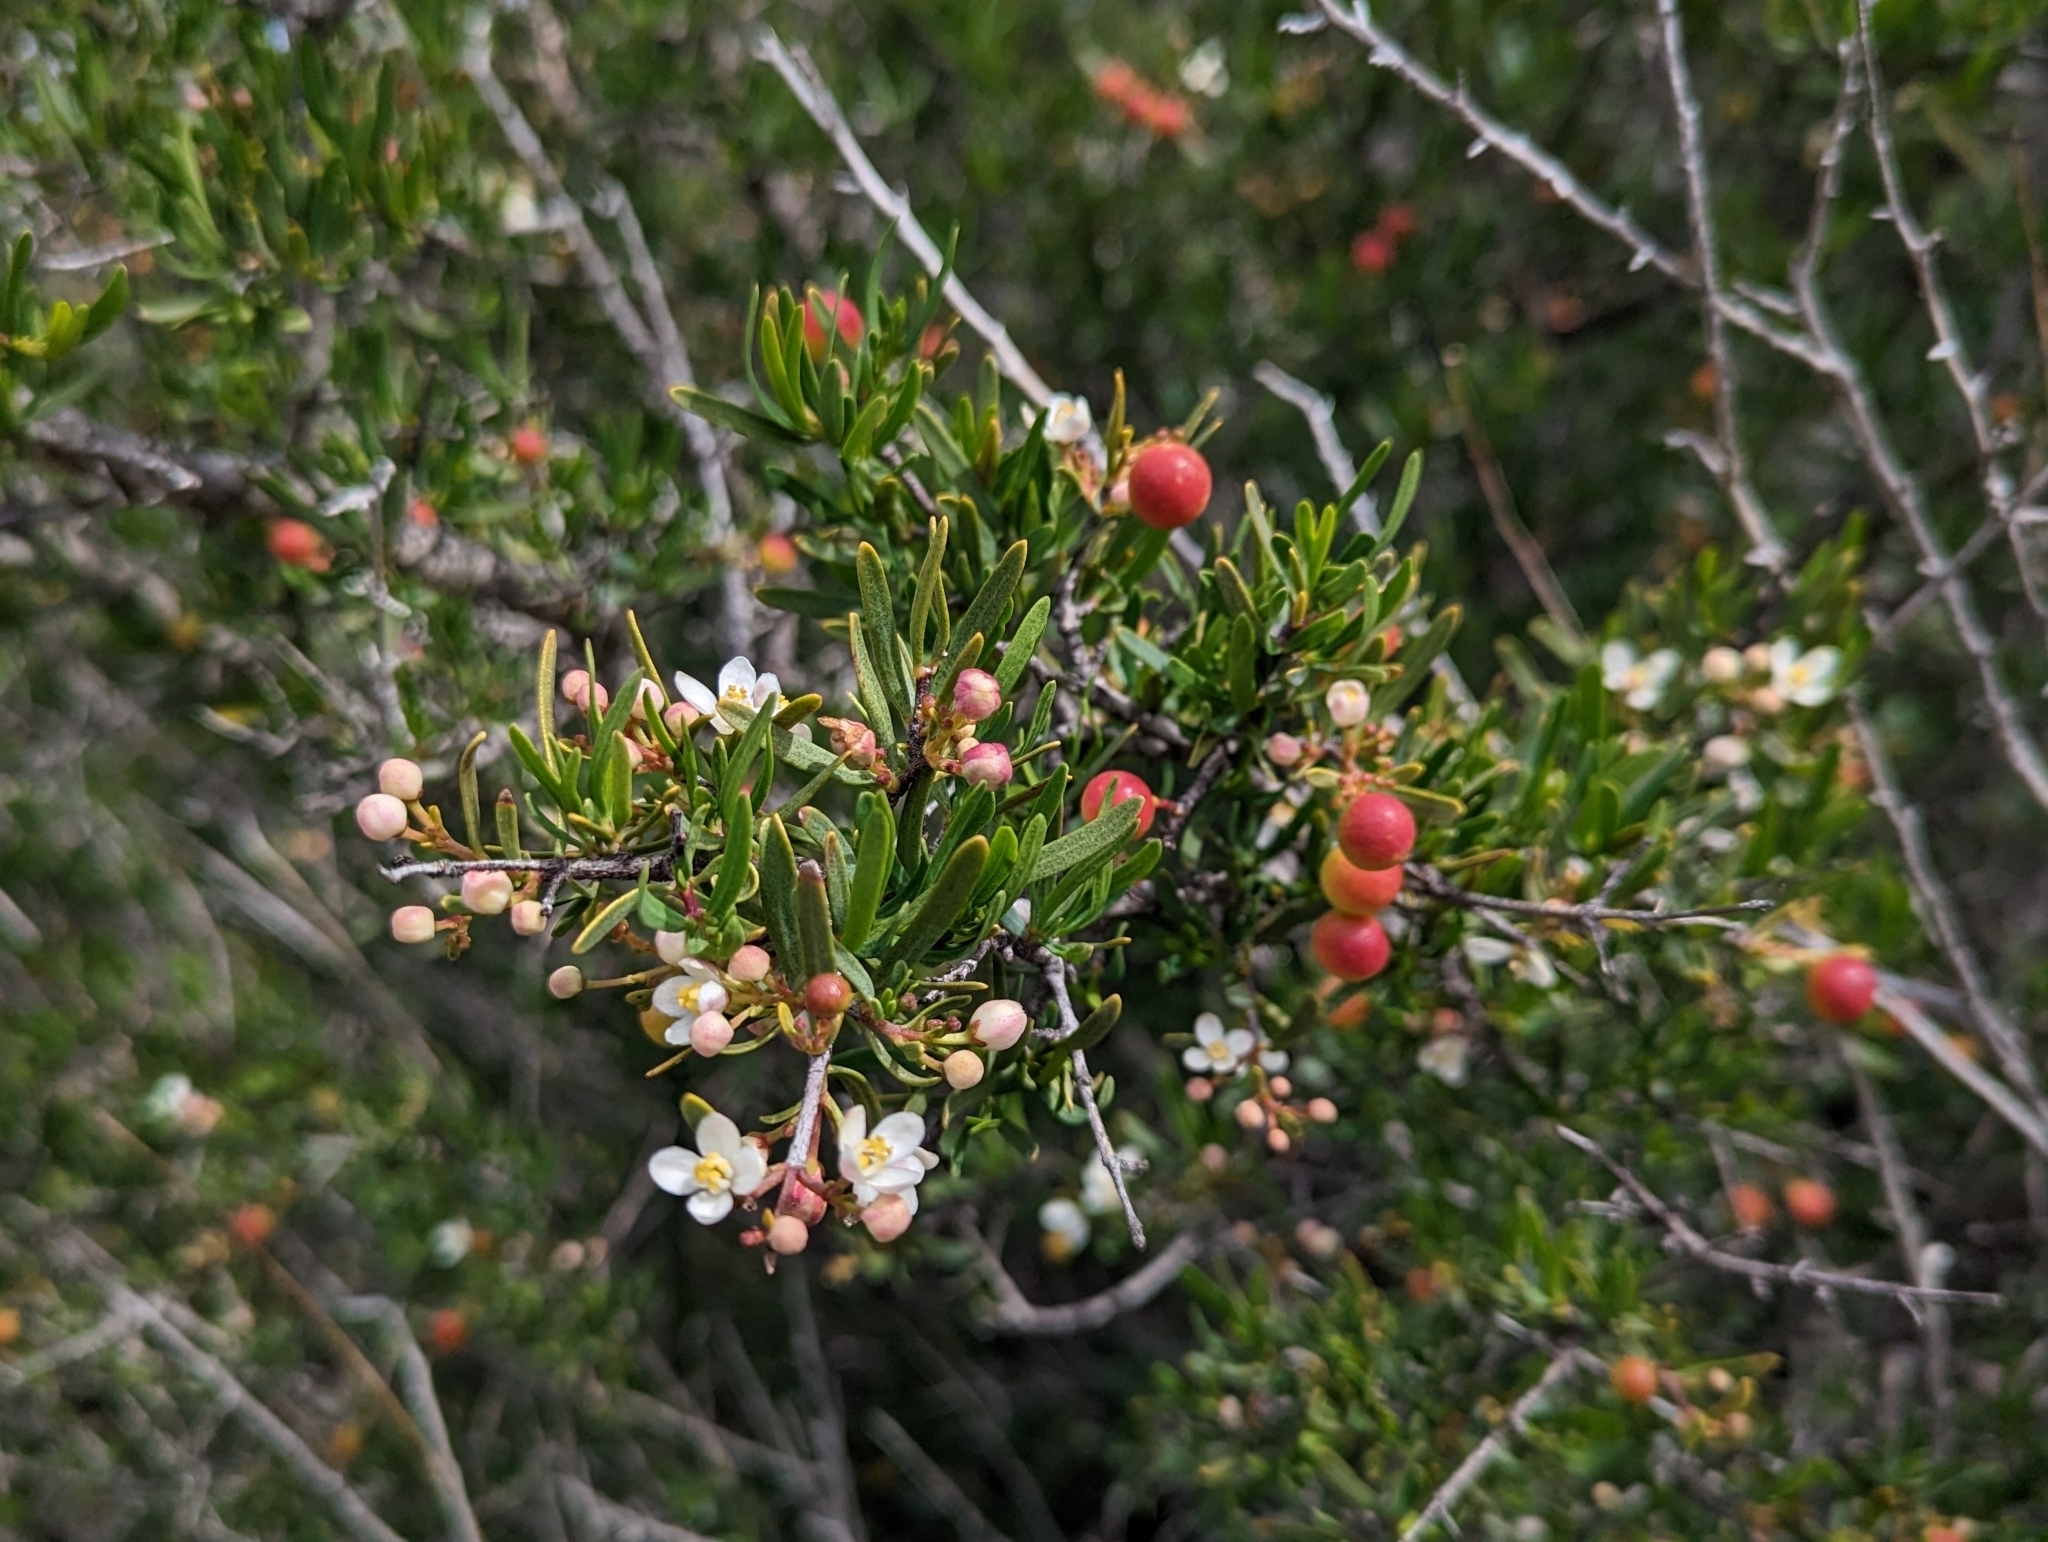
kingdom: Plantae
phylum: Tracheophyta
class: Magnoliopsida
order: Sapindales
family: Rutaceae
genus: Cneoridium
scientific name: Cneoridium dumosum
